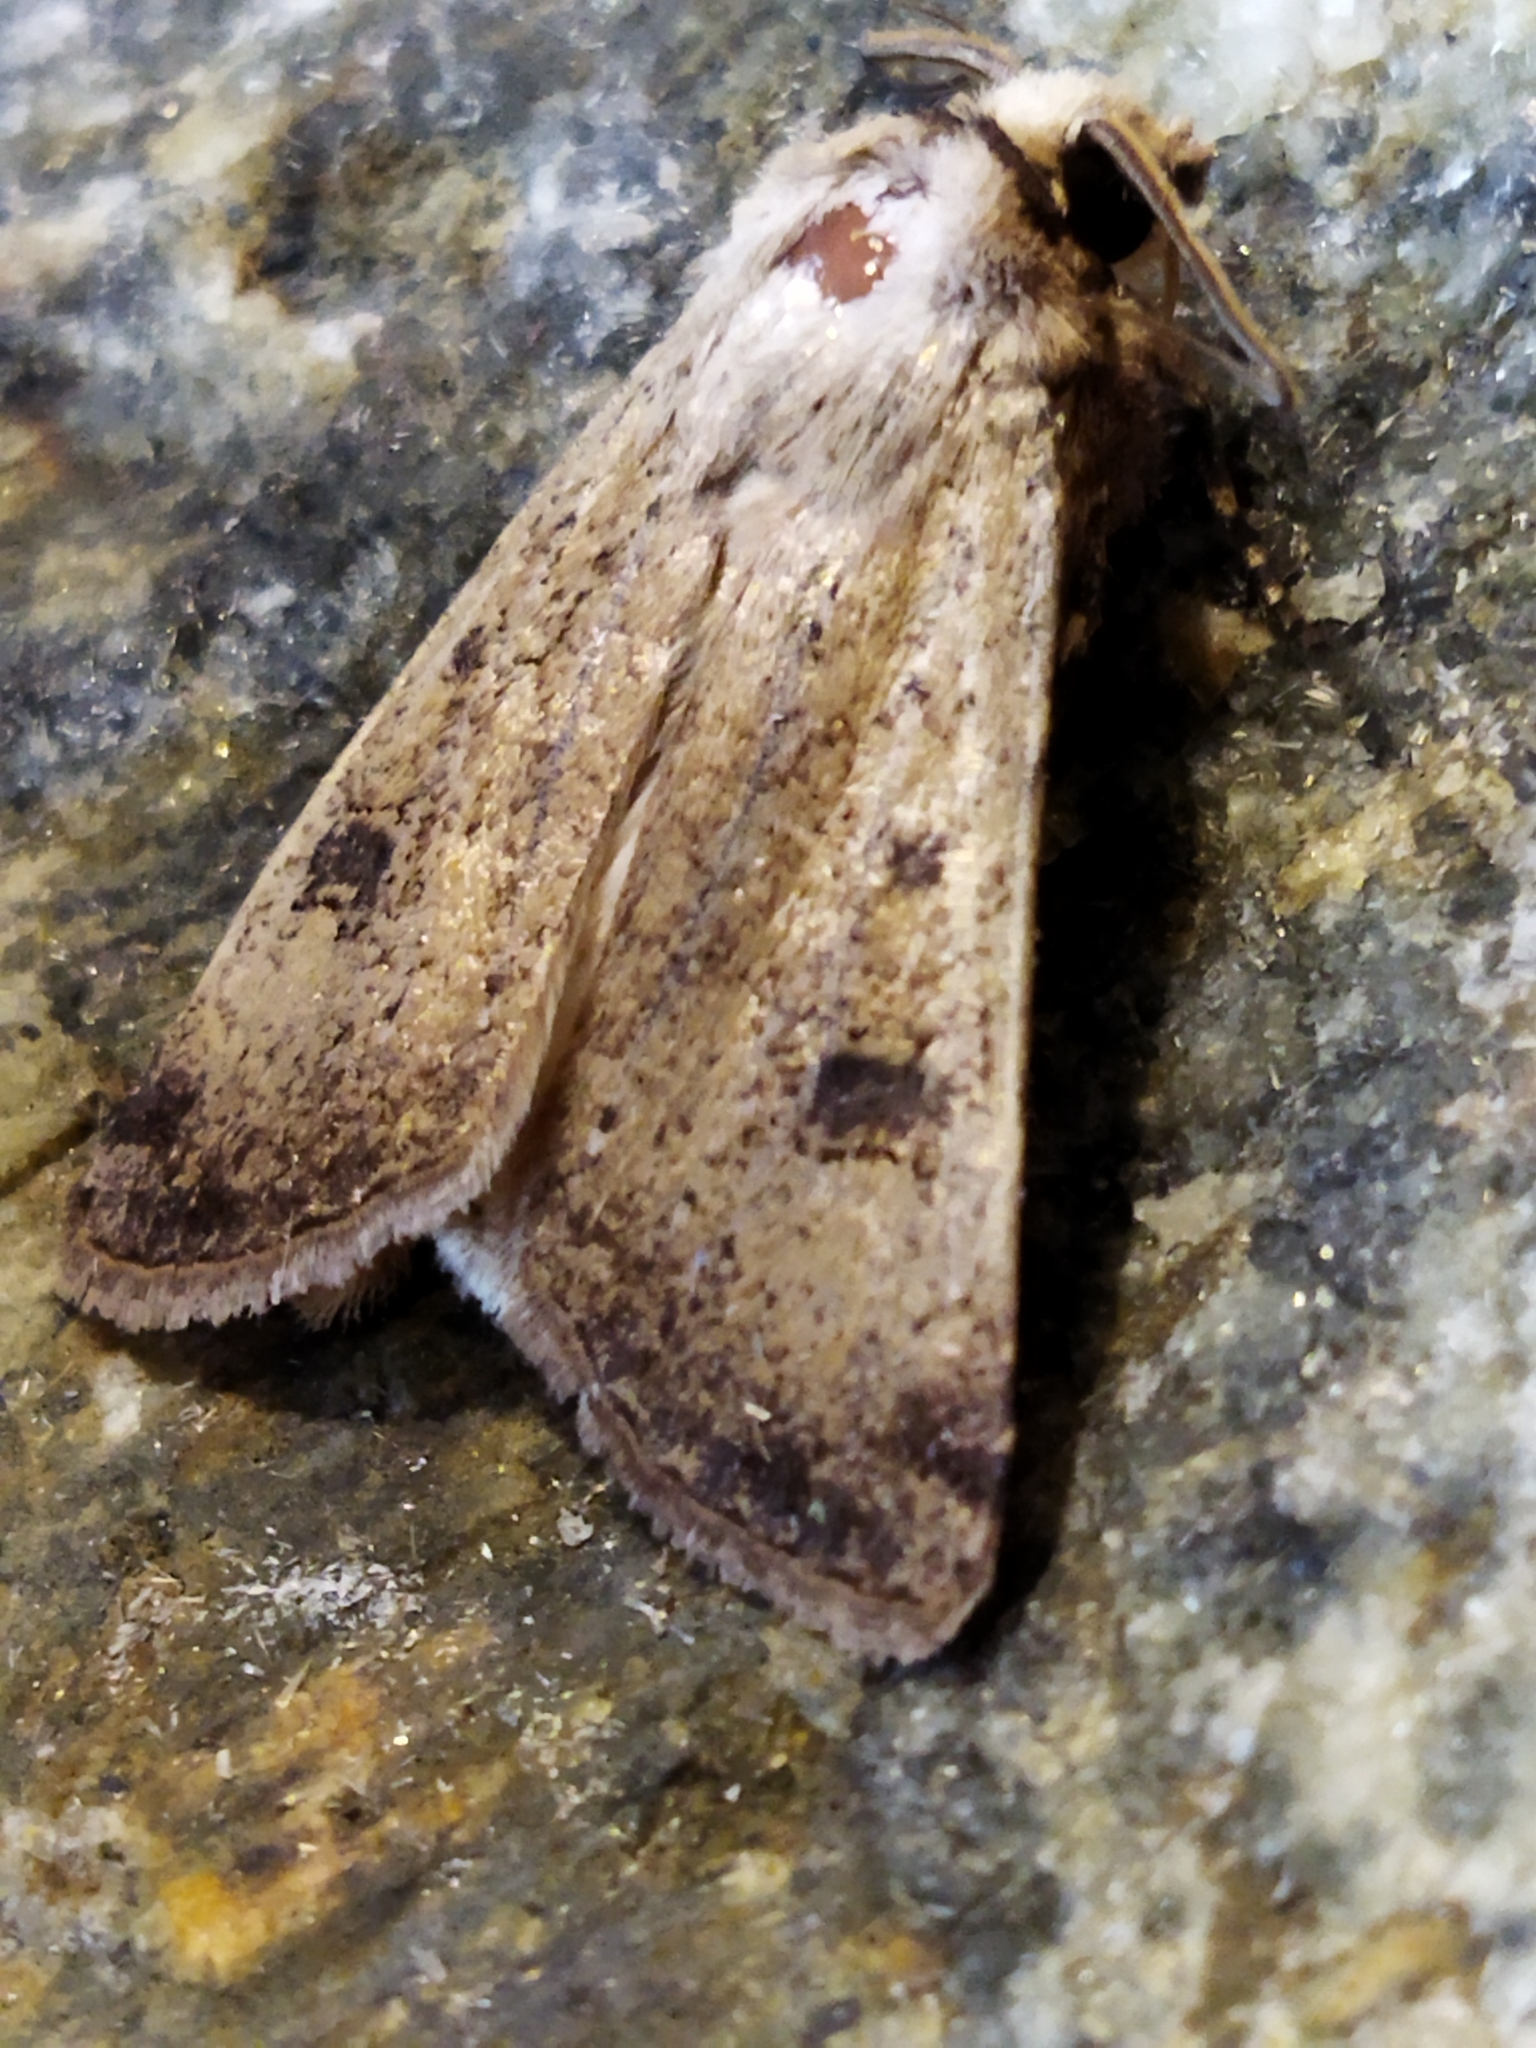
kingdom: Animalia
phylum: Arthropoda
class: Insecta
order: Lepidoptera
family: Noctuidae
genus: Agrotis
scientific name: Agrotis trux
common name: Crescent dart
